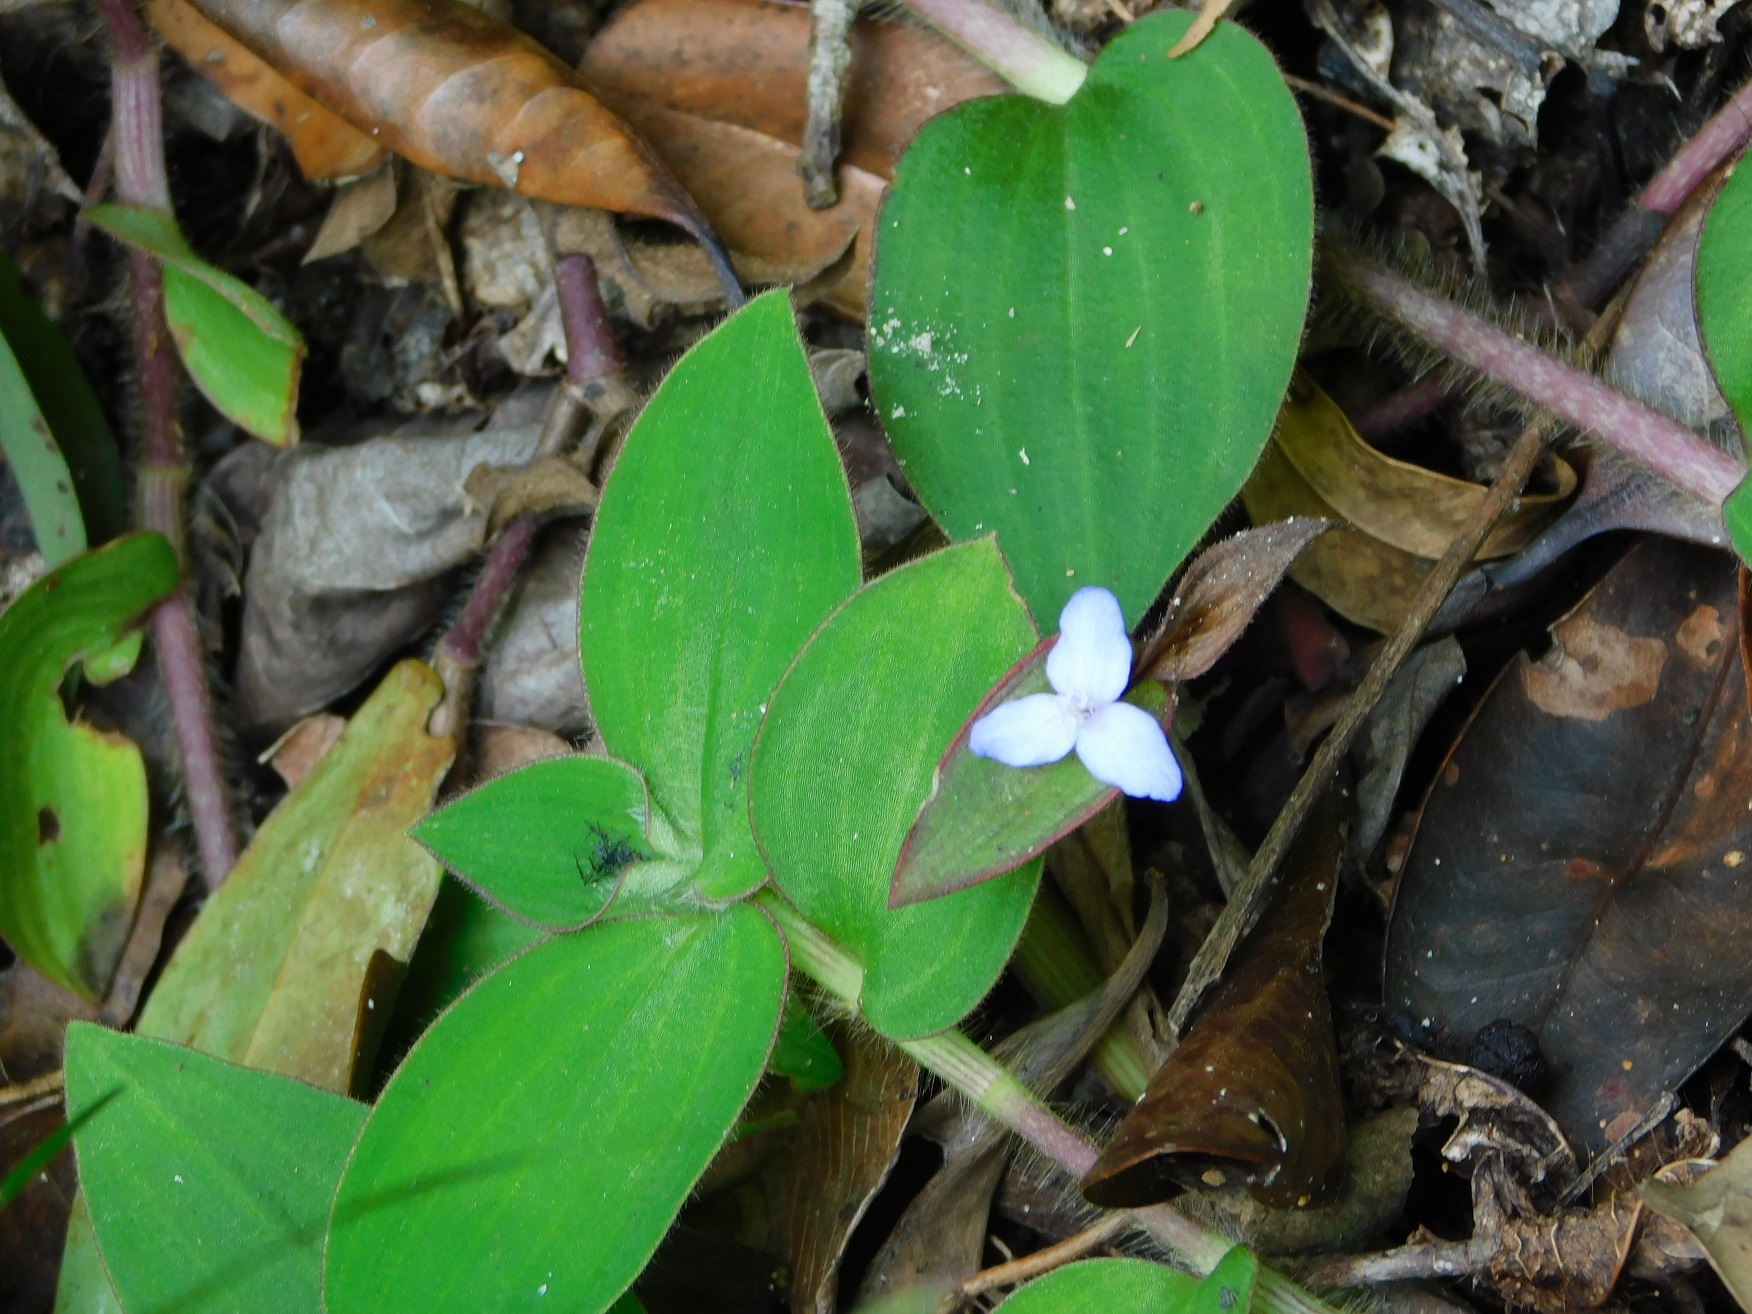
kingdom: Plantae
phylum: Tracheophyta
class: Liliopsida
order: Commelinales
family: Commelinaceae
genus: Tradescantia
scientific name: Tradescantia schippii
